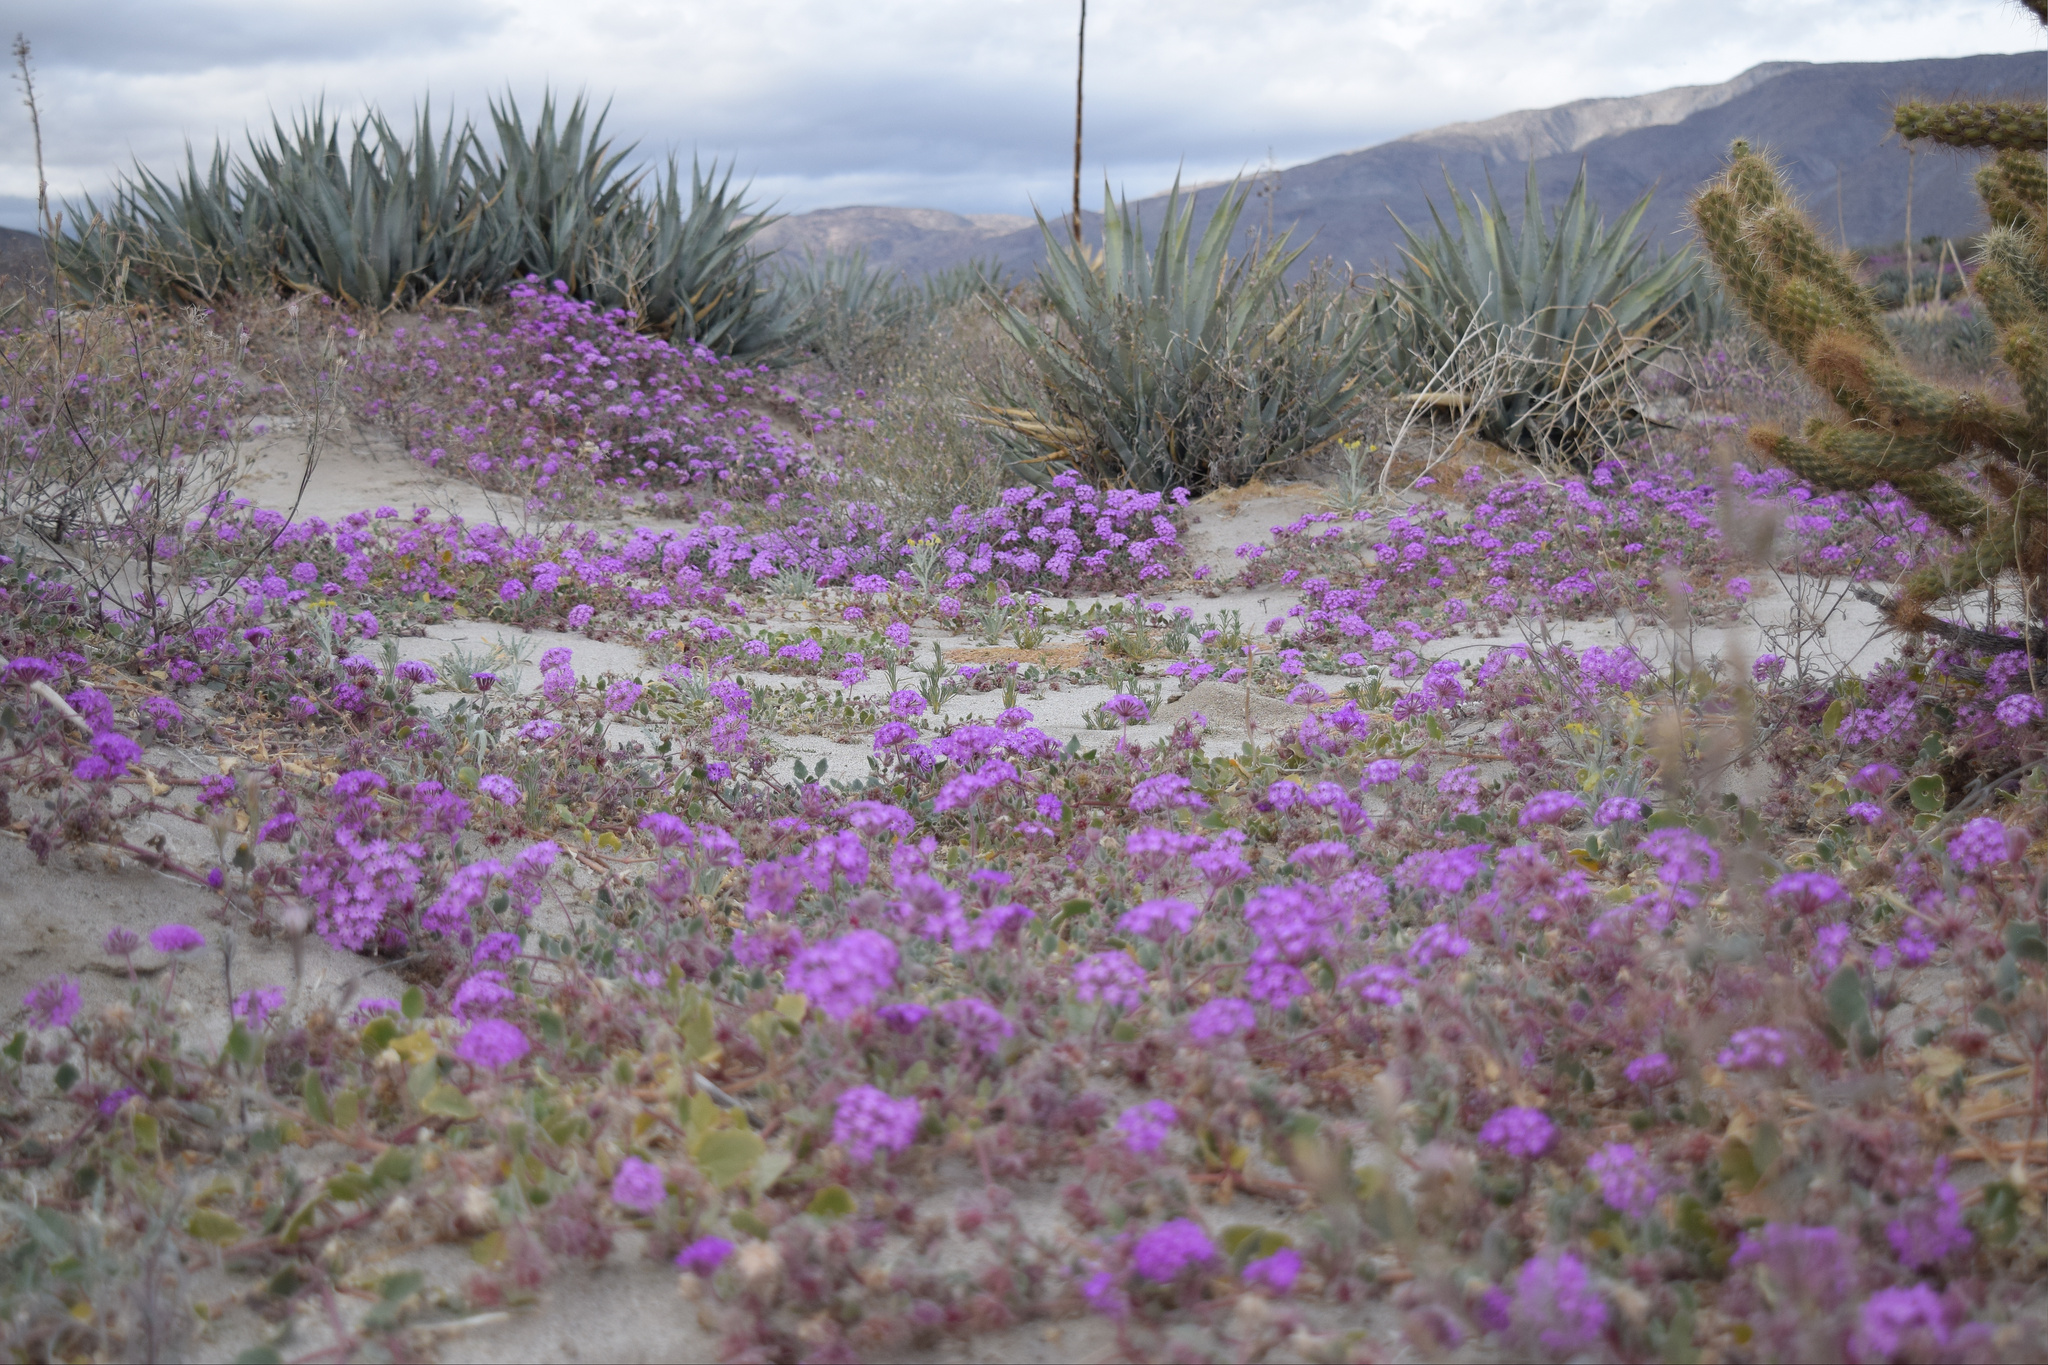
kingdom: Plantae
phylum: Tracheophyta
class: Magnoliopsida
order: Caryophyllales
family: Nyctaginaceae
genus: Abronia
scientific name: Abronia villosa
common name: Desert sand-verbena
